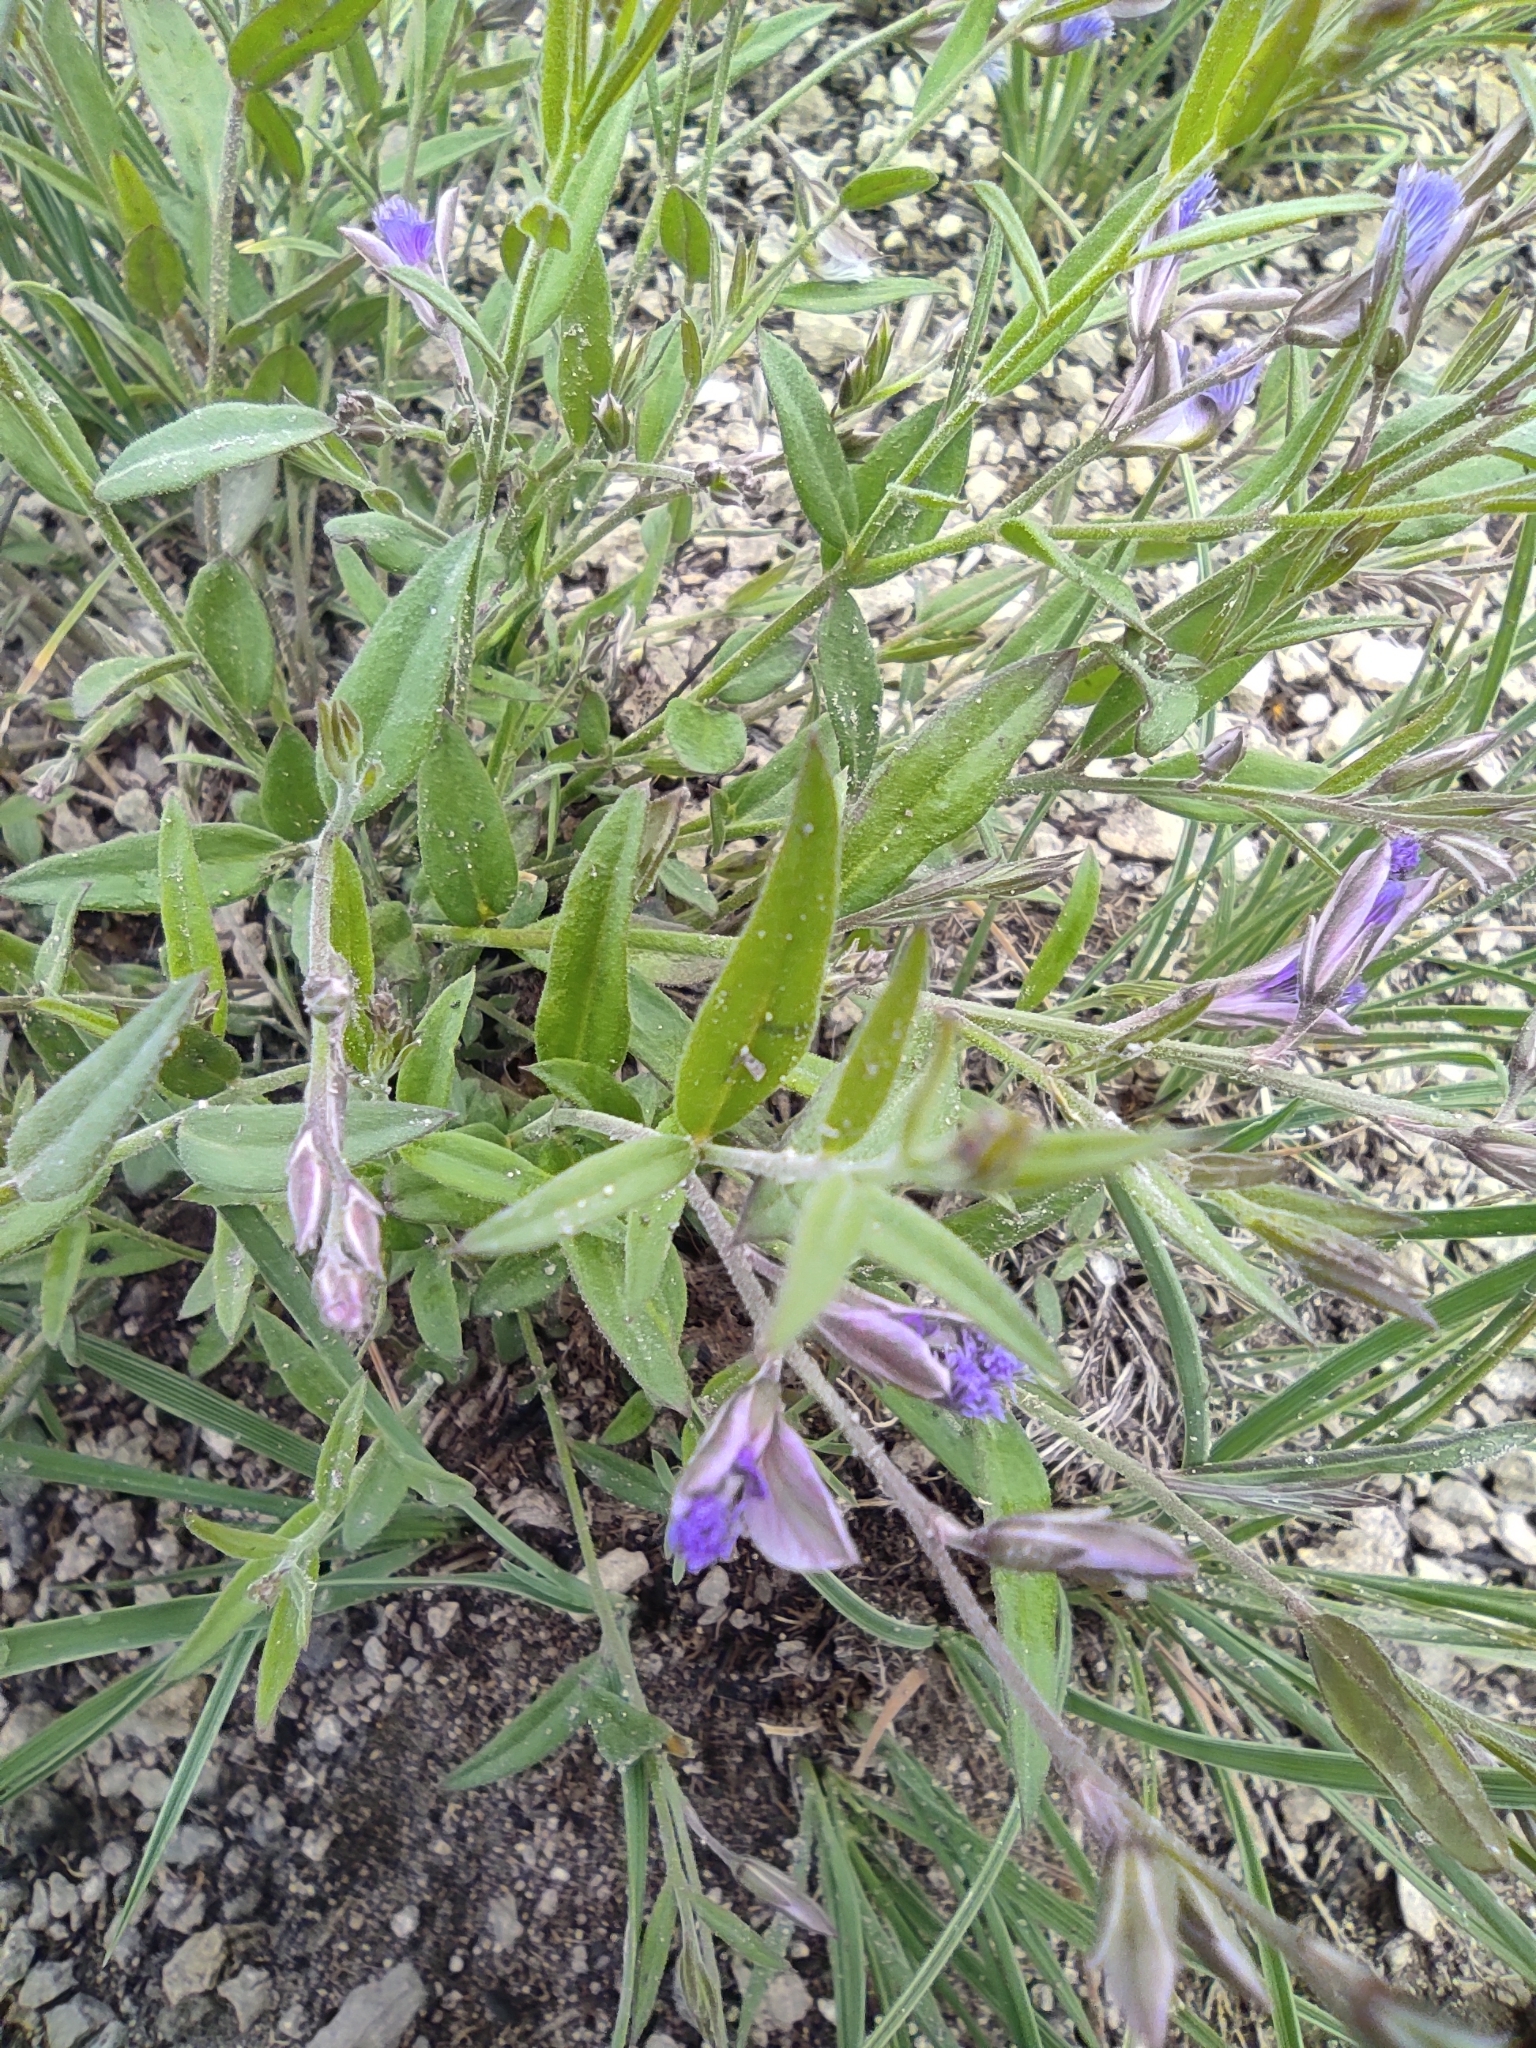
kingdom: Plantae
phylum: Tracheophyta
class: Magnoliopsida
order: Fabales
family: Polygalaceae
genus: Polygala
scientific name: Polygala sibirica
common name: Siberian polygala
